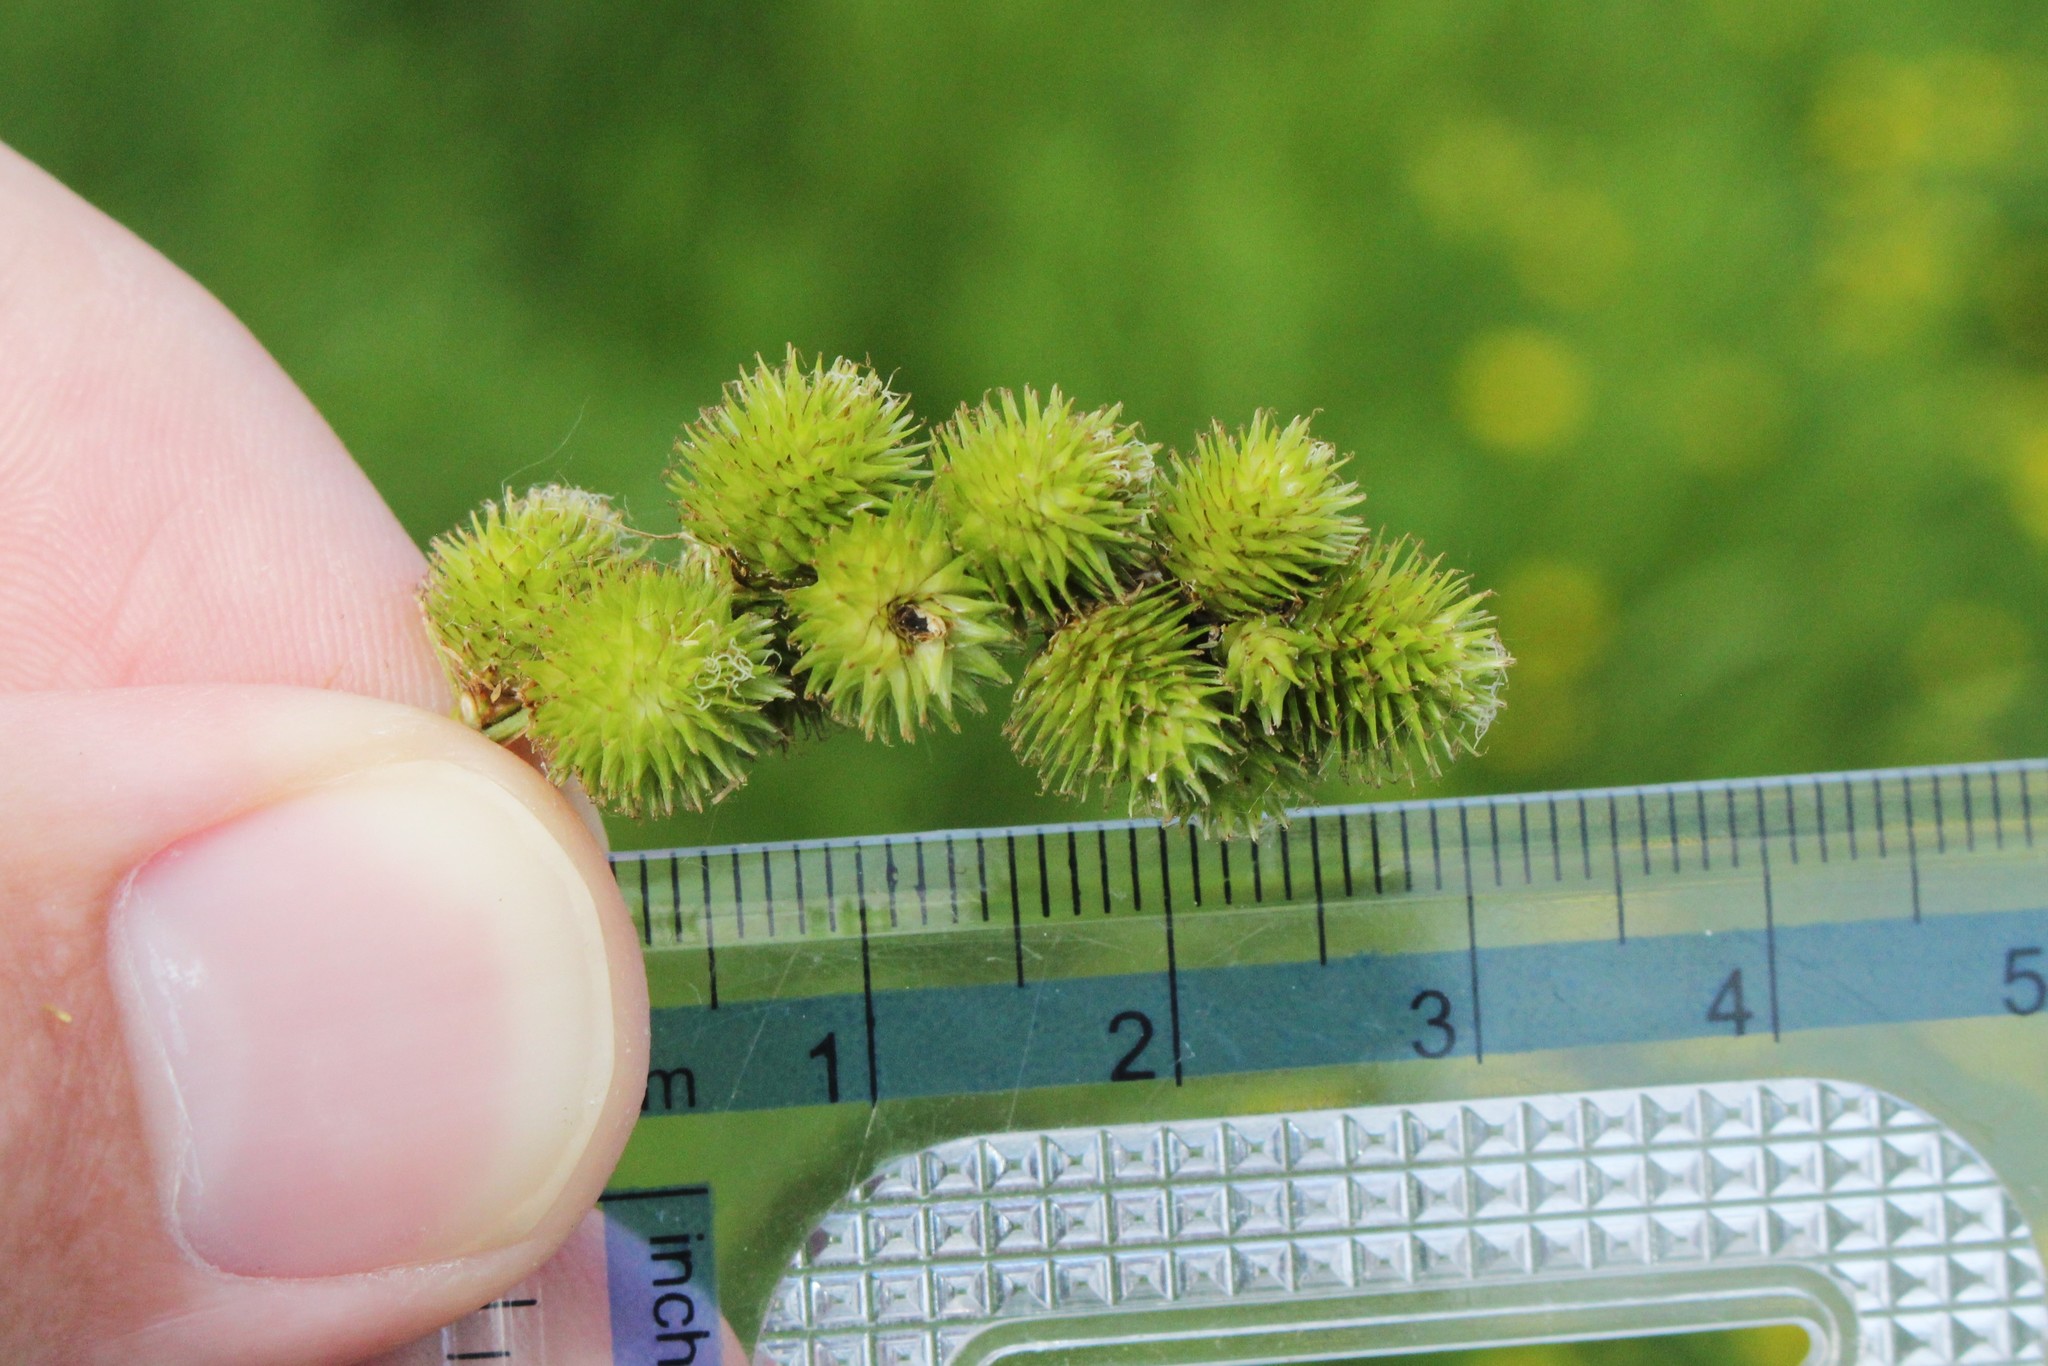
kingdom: Plantae
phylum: Tracheophyta
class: Liliopsida
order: Poales
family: Cyperaceae
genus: Carex
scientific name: Carex cristatella
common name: Crested oval sedge
